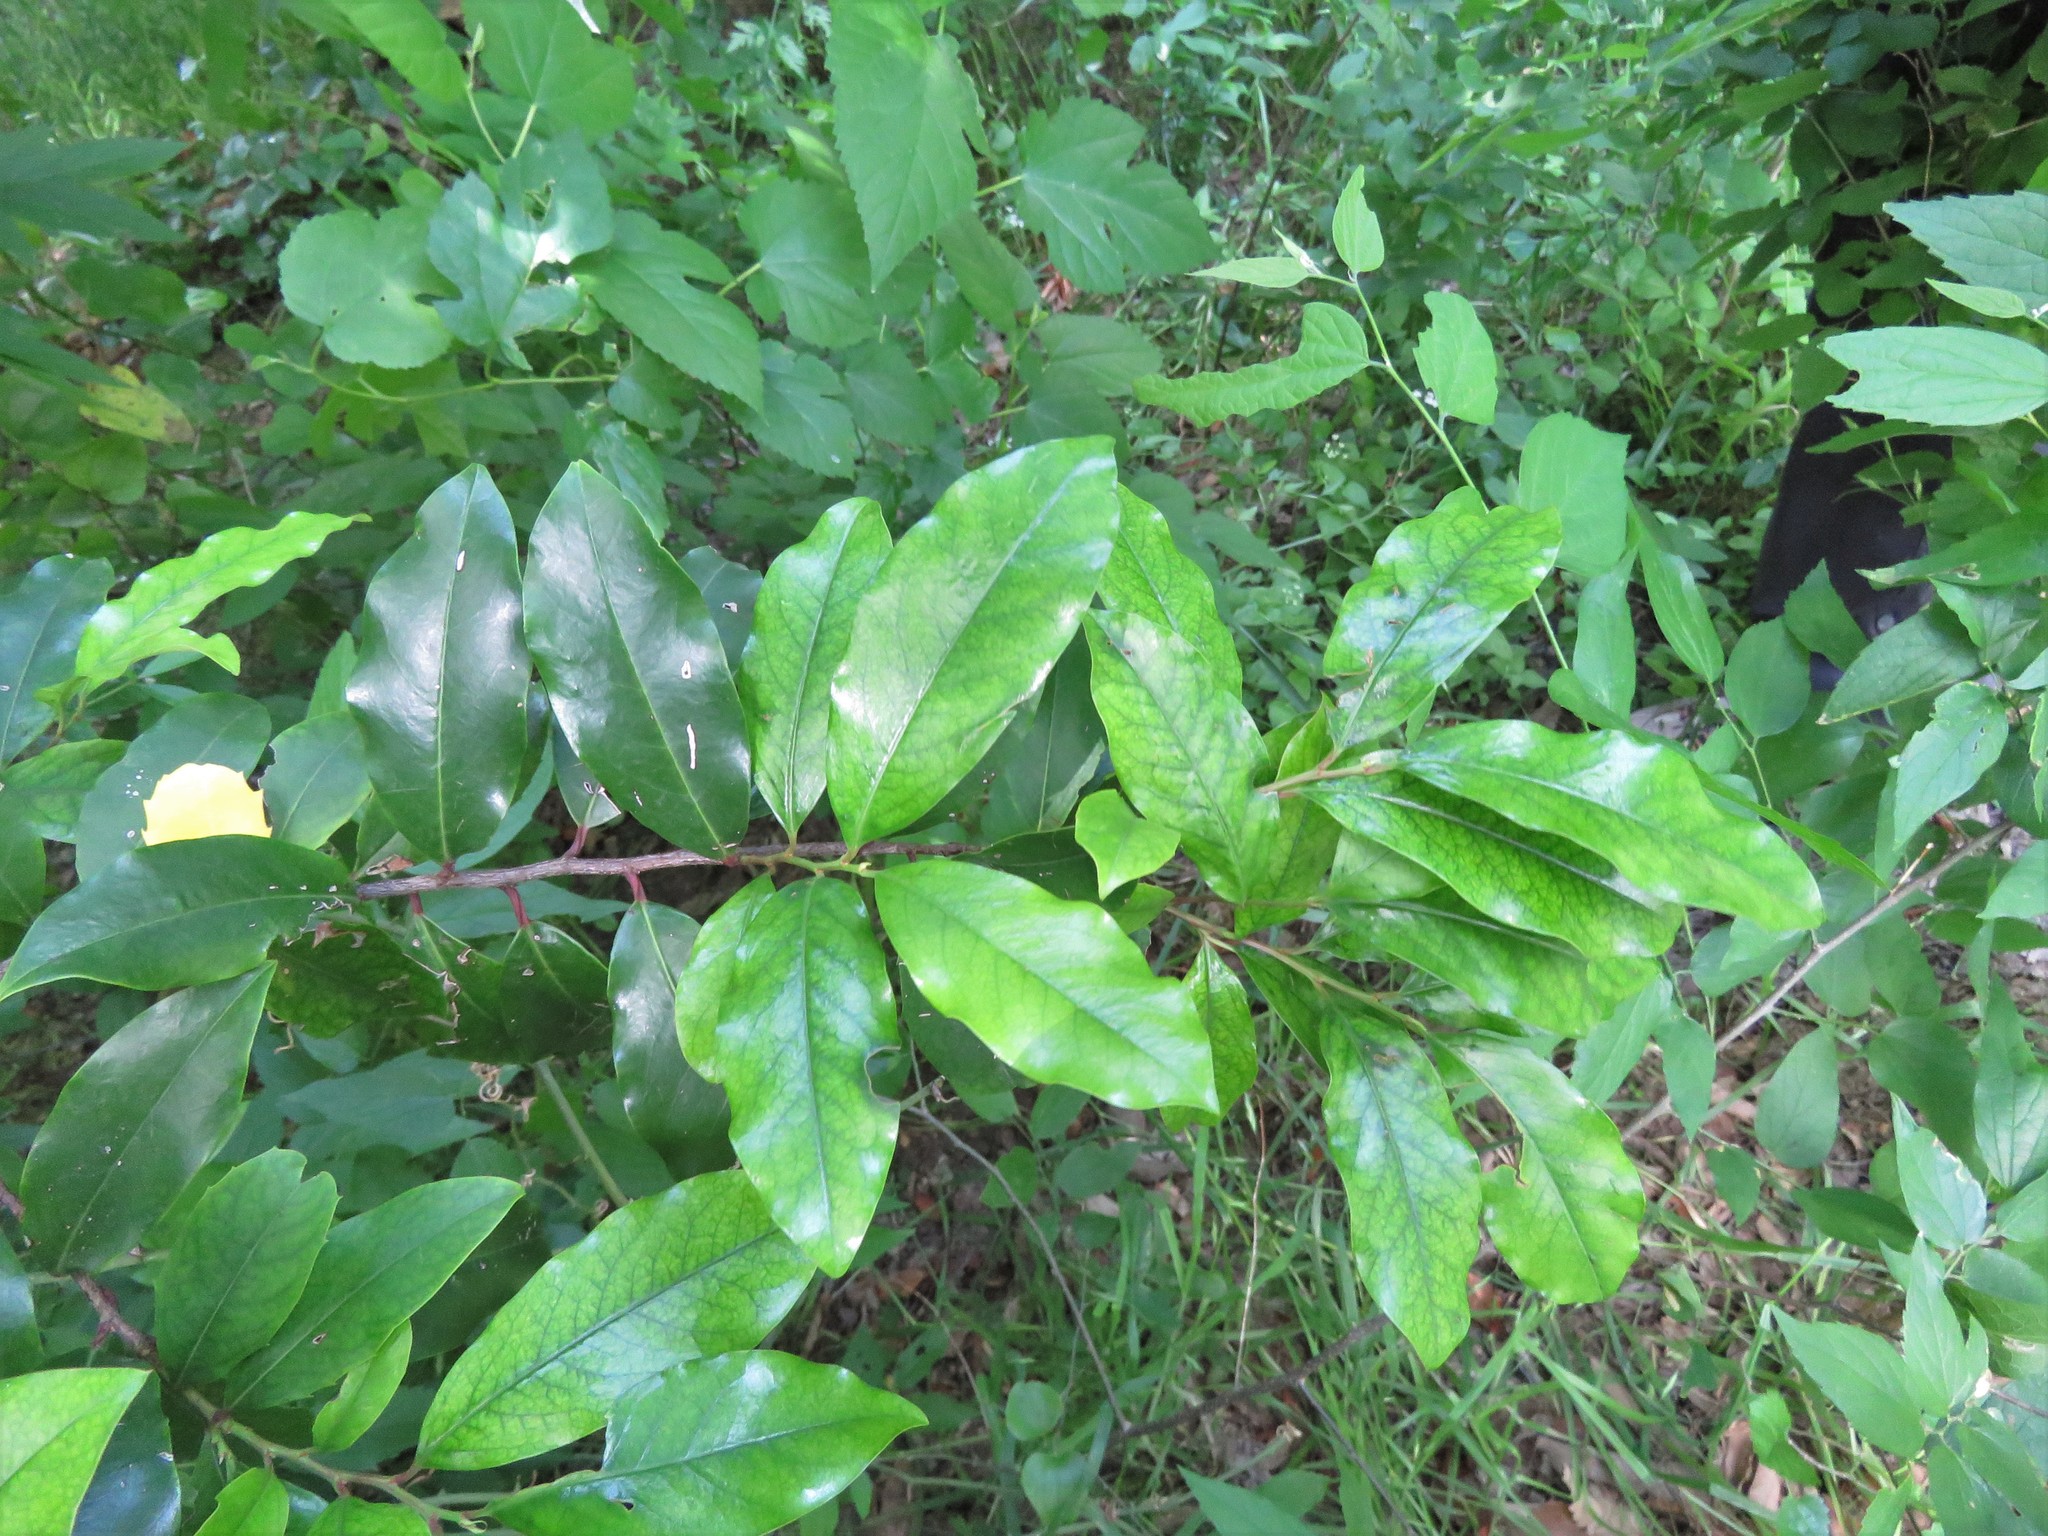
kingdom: Plantae
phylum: Tracheophyta
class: Magnoliopsida
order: Rosales
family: Rosaceae
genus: Prunus
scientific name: Prunus caroliniana
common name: Carolina laurel cherry
